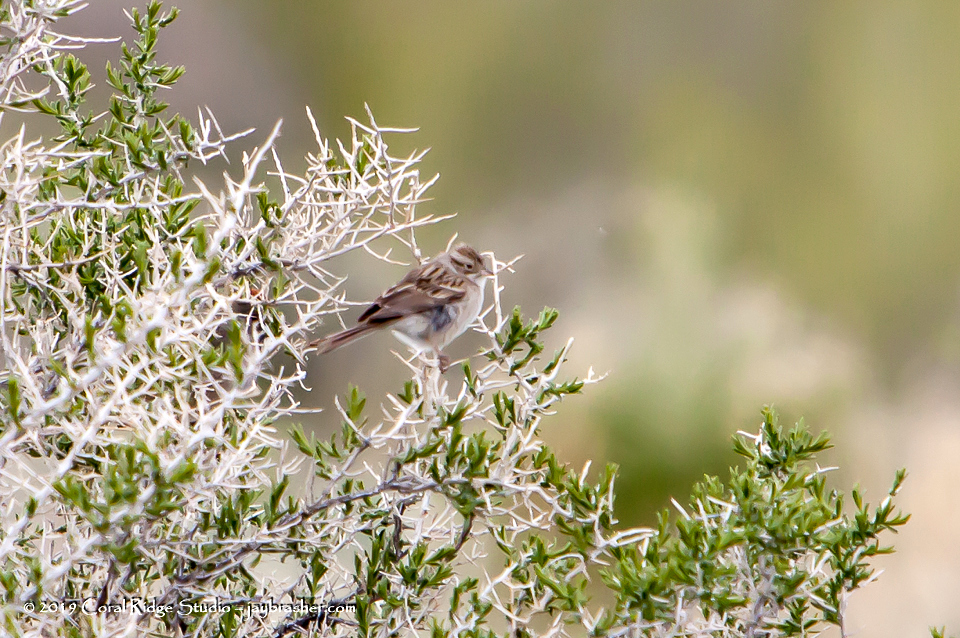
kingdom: Animalia
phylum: Chordata
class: Aves
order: Passeriformes
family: Passerellidae
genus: Spizella
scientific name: Spizella breweri
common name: Brewer's sparrow
